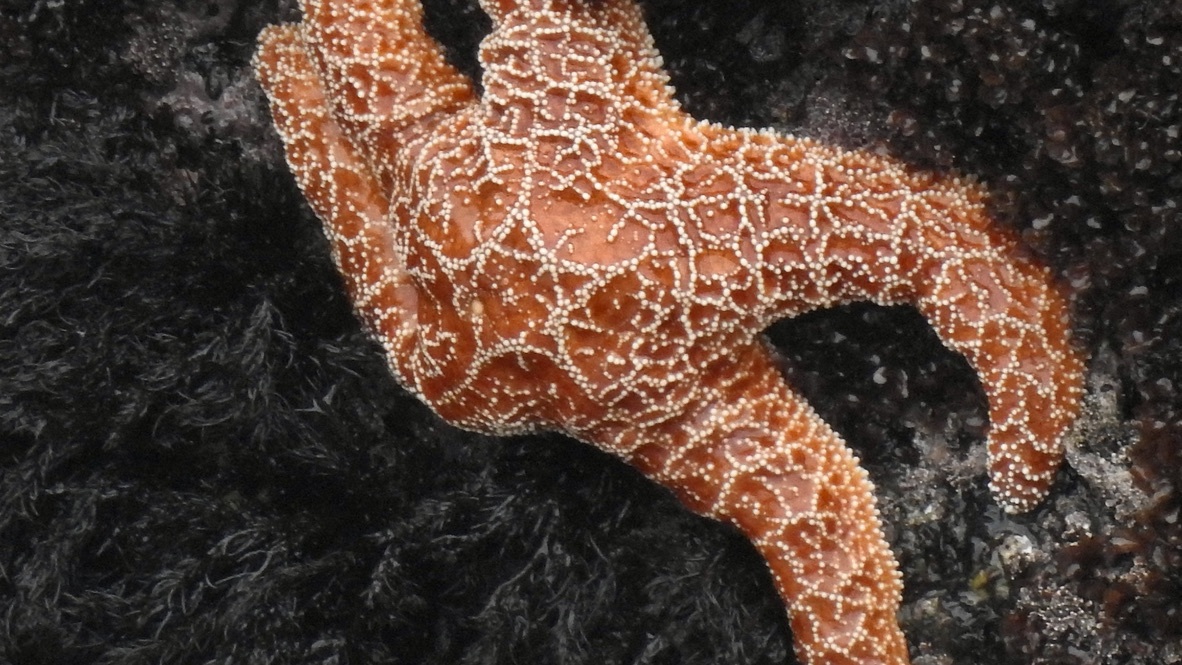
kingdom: Animalia
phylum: Echinodermata
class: Asteroidea
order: Forcipulatida
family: Asteriidae
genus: Pisaster
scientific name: Pisaster ochraceus
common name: Ochre stars
